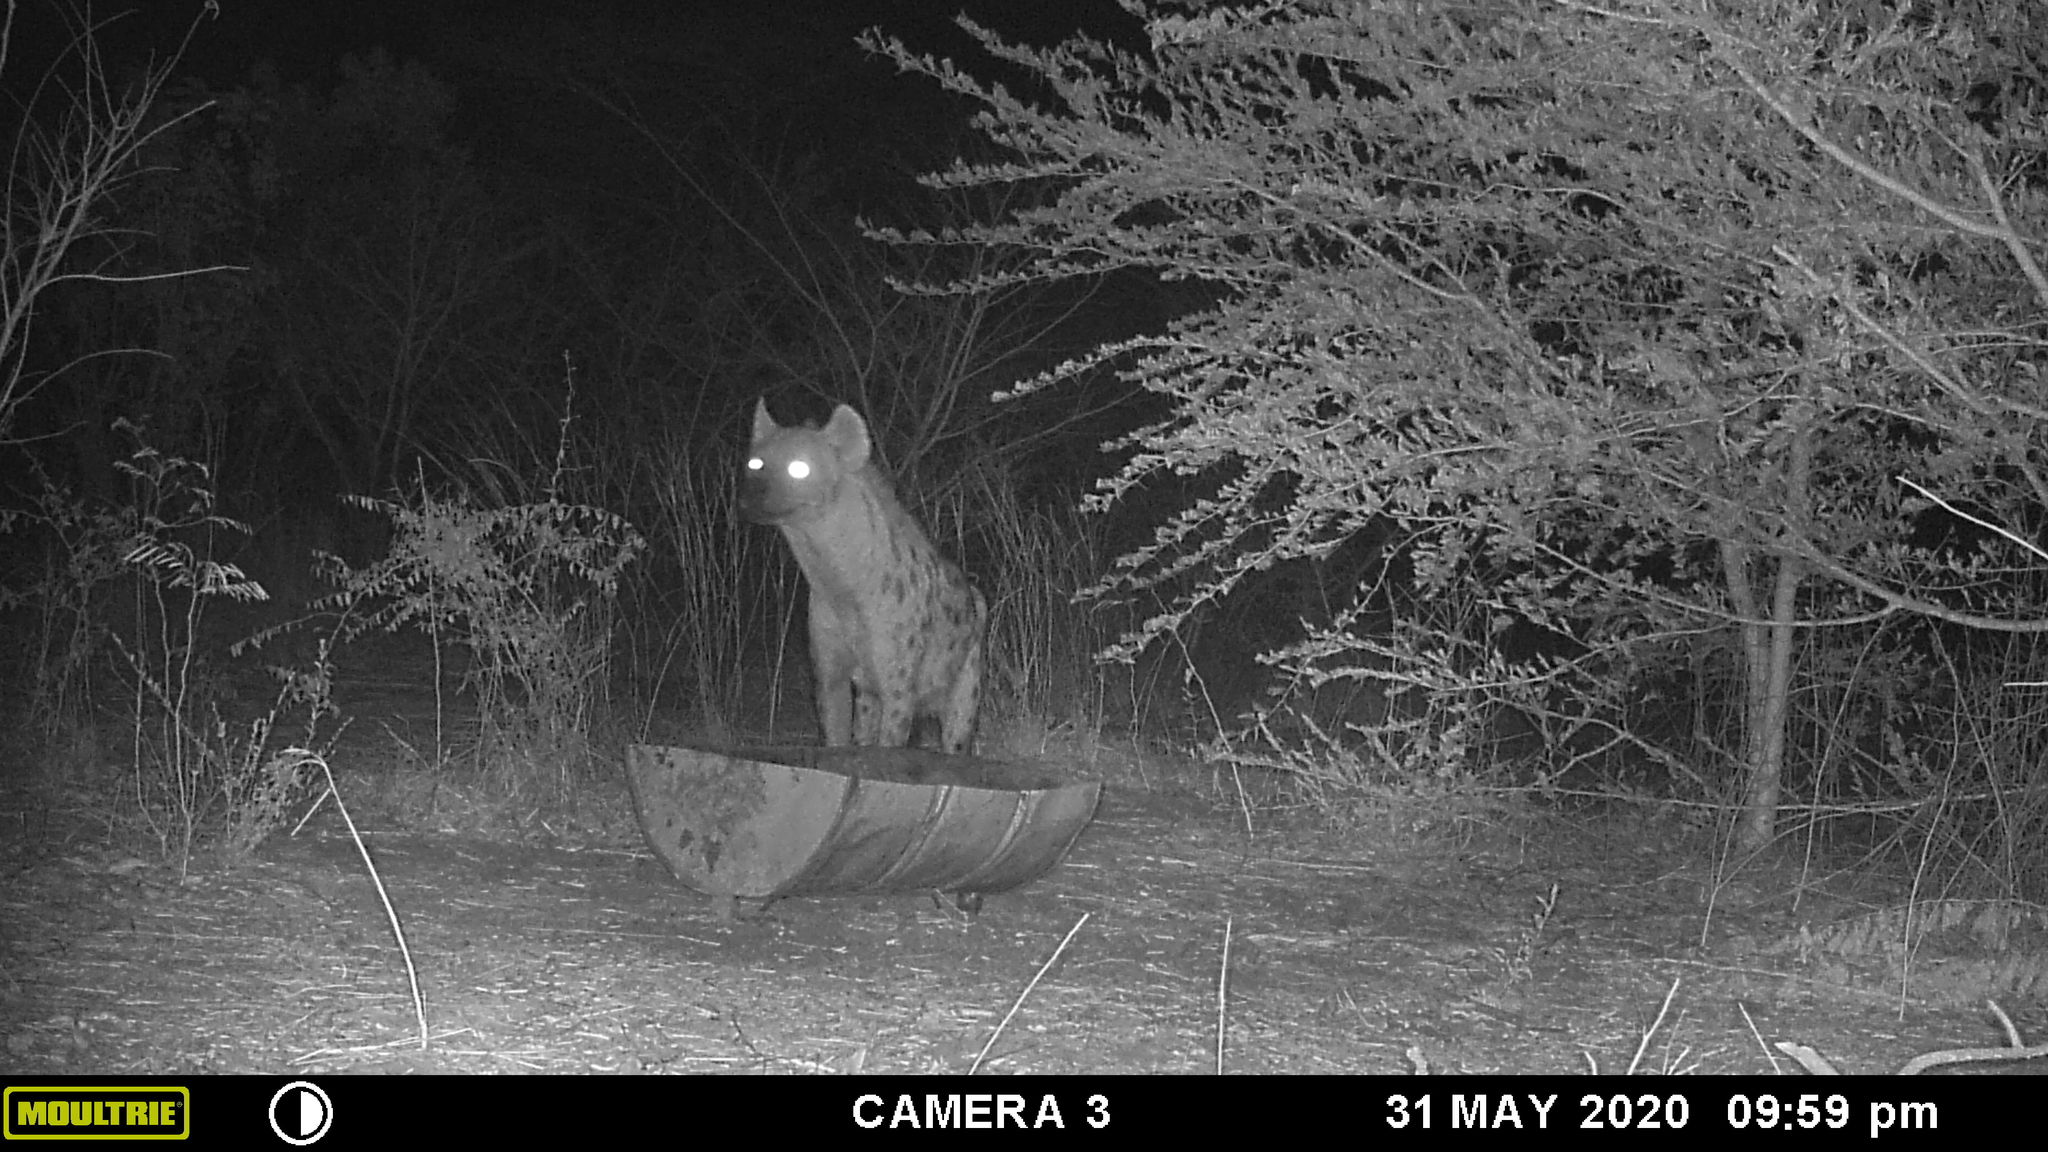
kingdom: Animalia
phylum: Chordata
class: Mammalia
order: Carnivora
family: Hyaenidae
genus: Crocuta
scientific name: Crocuta crocuta
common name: Spotted hyaena
